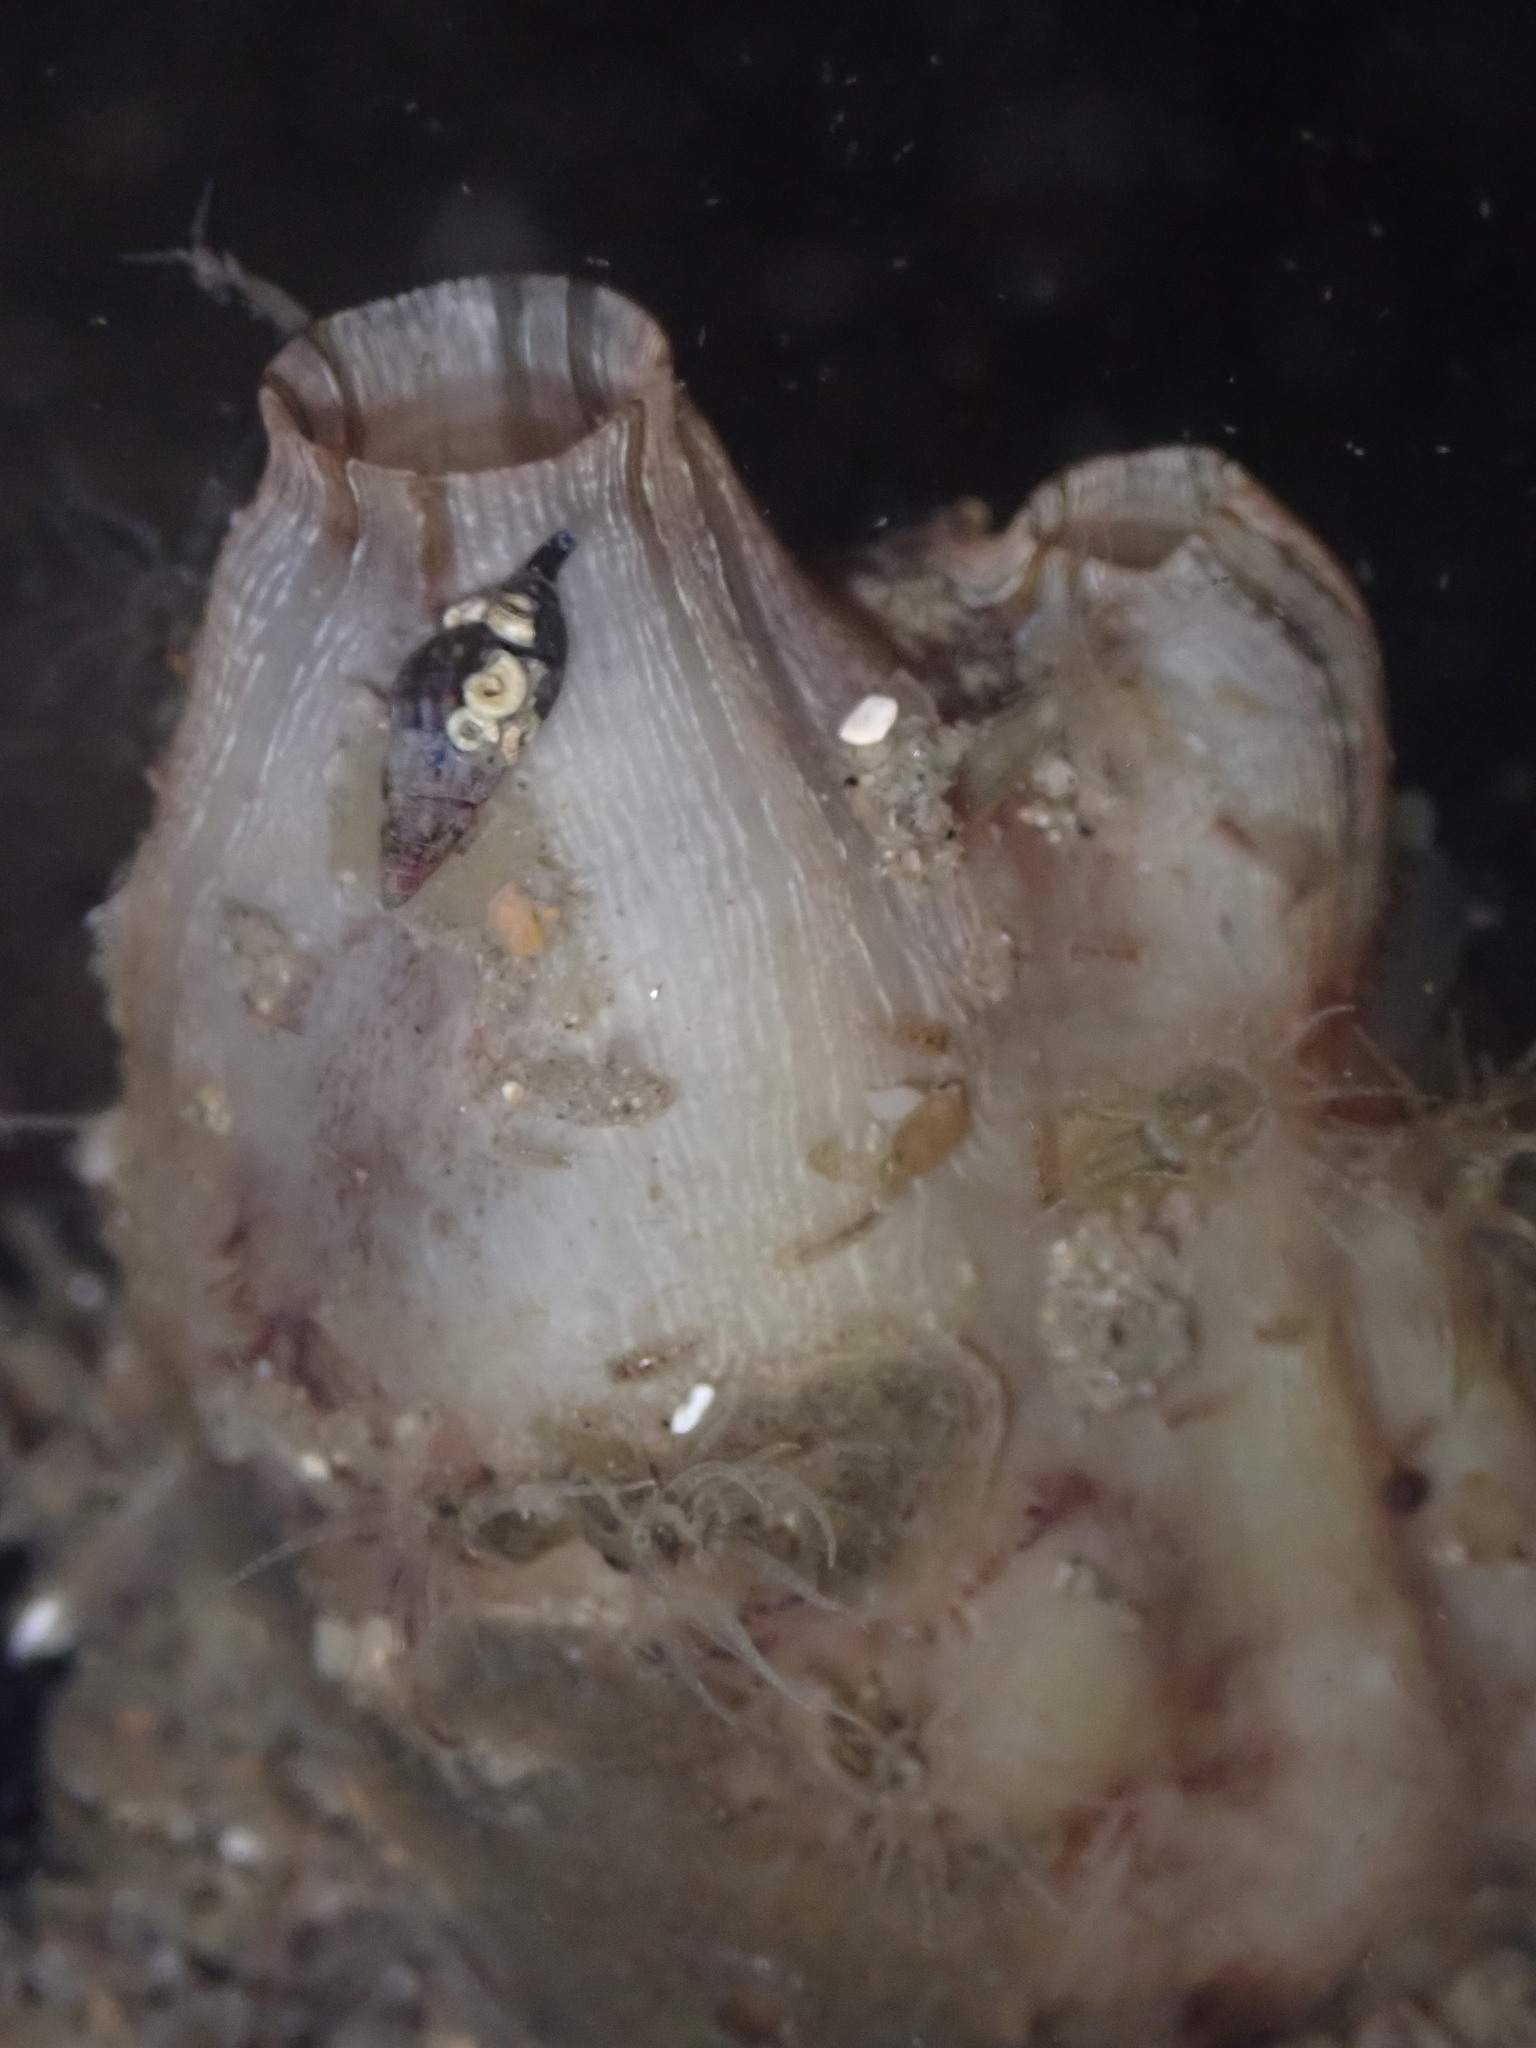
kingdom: Animalia
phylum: Chordata
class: Ascidiacea
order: Stolidobranchia
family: Styelidae
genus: Styela
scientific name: Styela plicata
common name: Pleated tunicate
